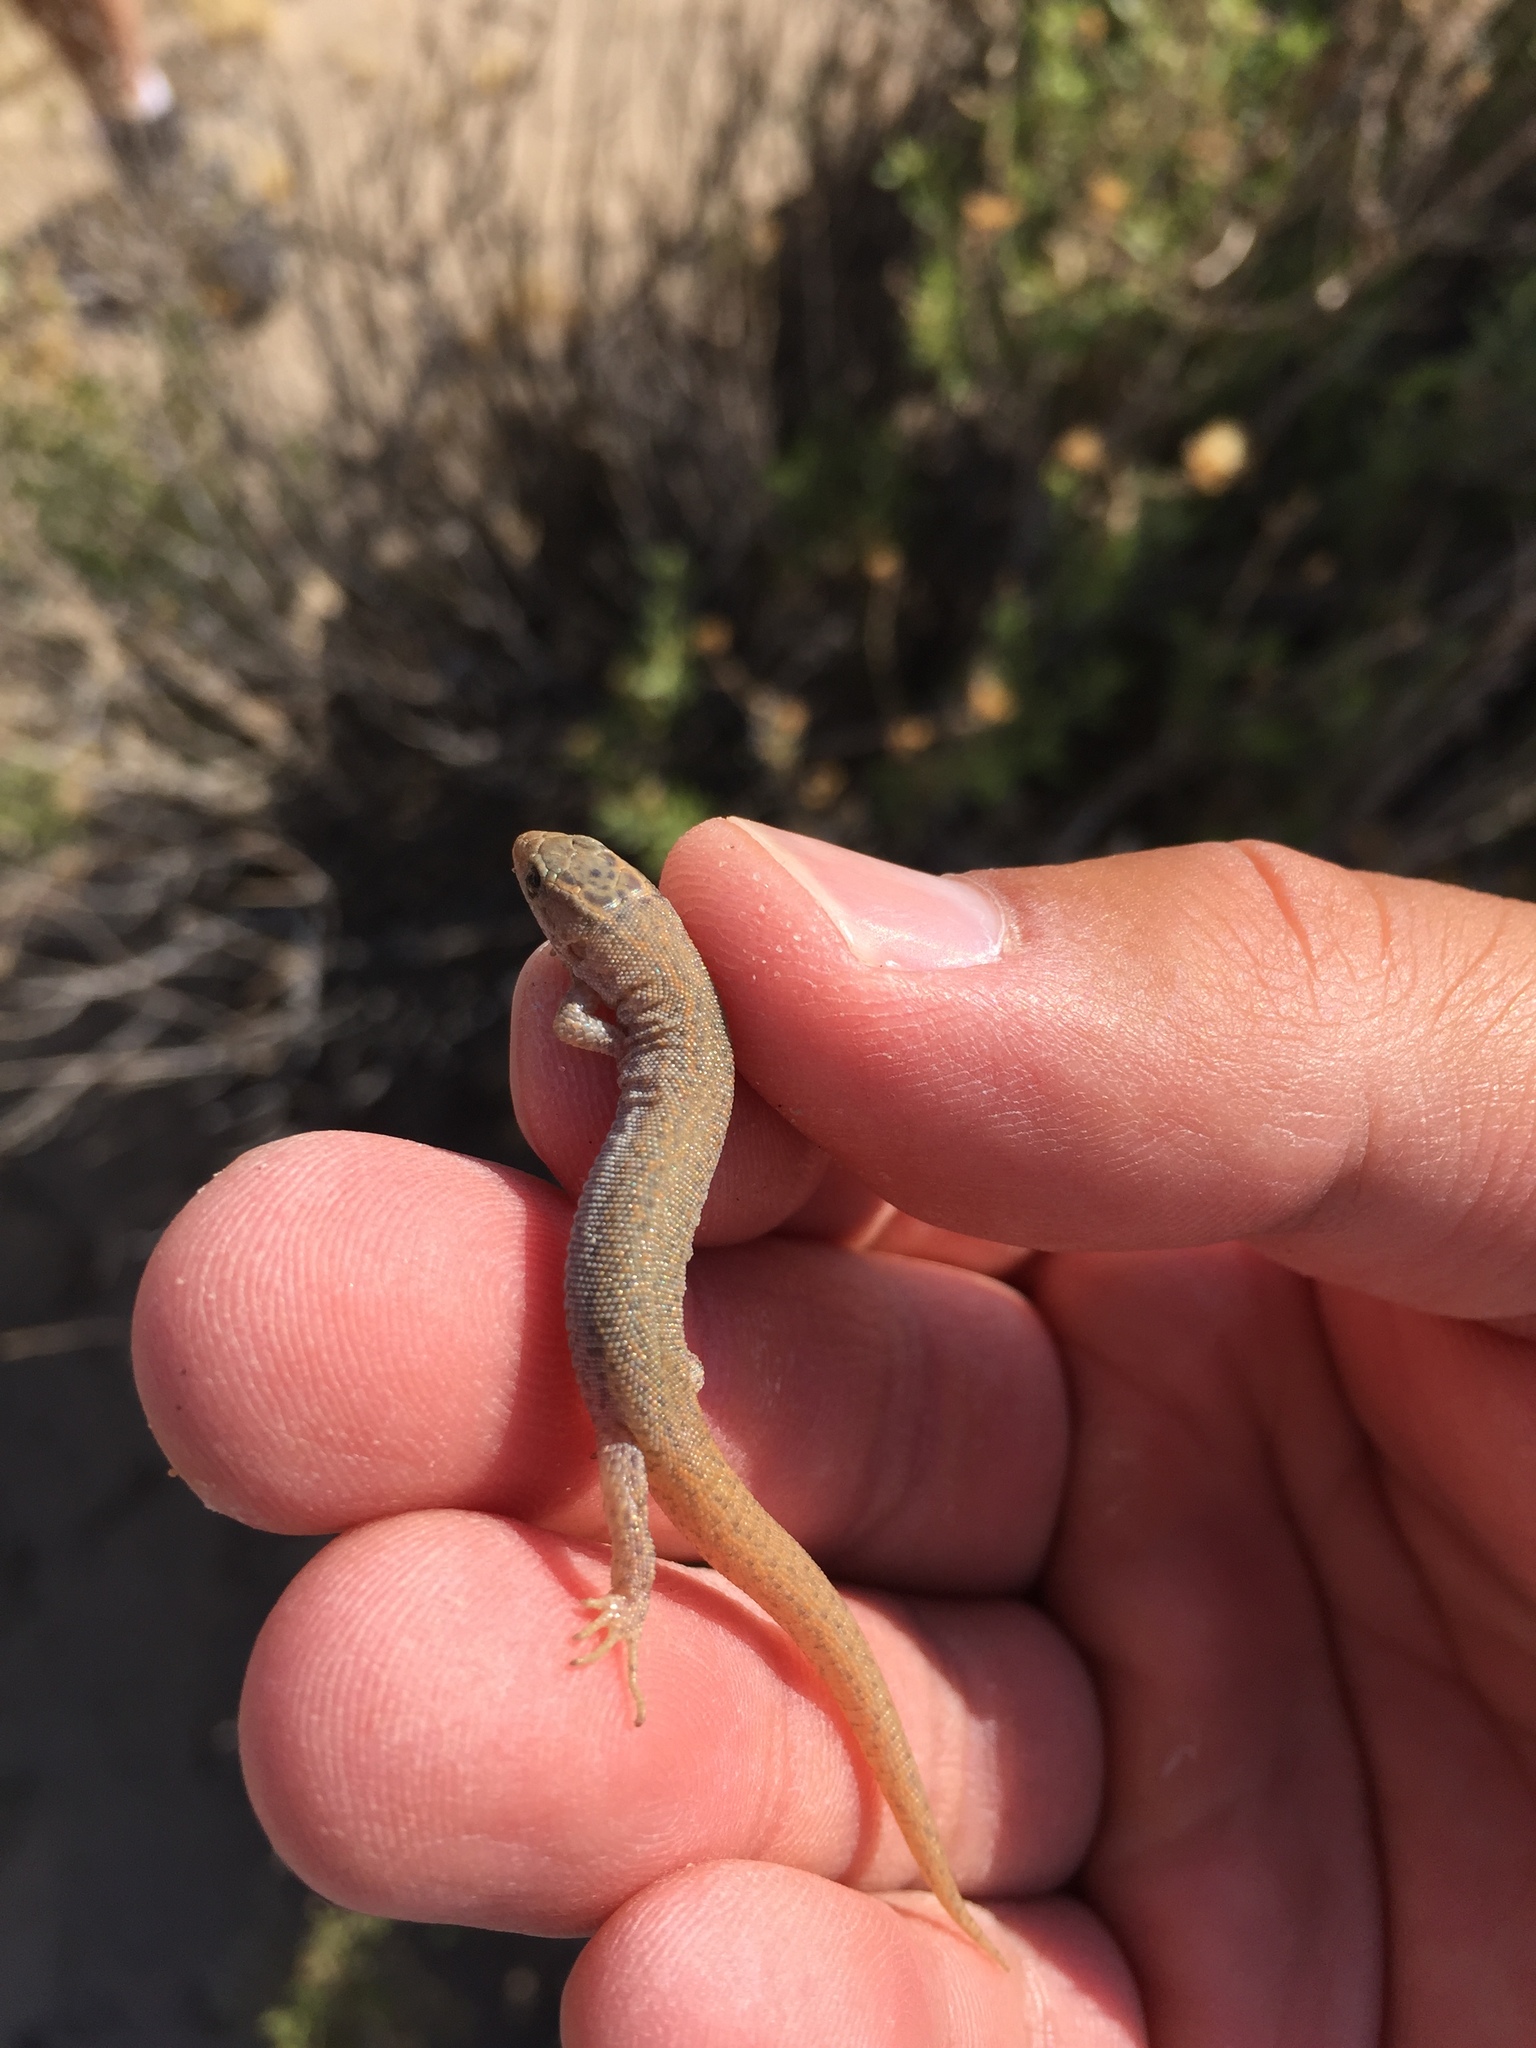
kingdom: Animalia
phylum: Chordata
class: Squamata
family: Xantusiidae
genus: Xantusia
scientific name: Xantusia vigilis
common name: Desert night lizard
